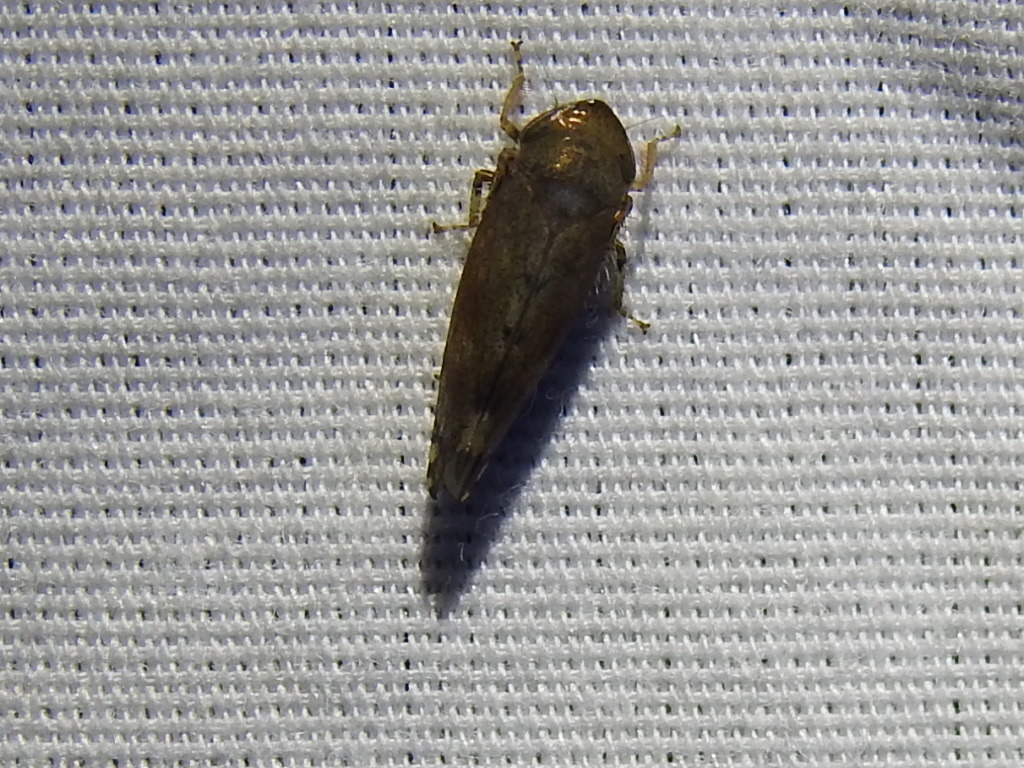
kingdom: Animalia
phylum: Arthropoda
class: Insecta
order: Hemiptera
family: Cicadellidae
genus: Fieberiella
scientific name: Fieberiella florii
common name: Flor’s leafhopper
